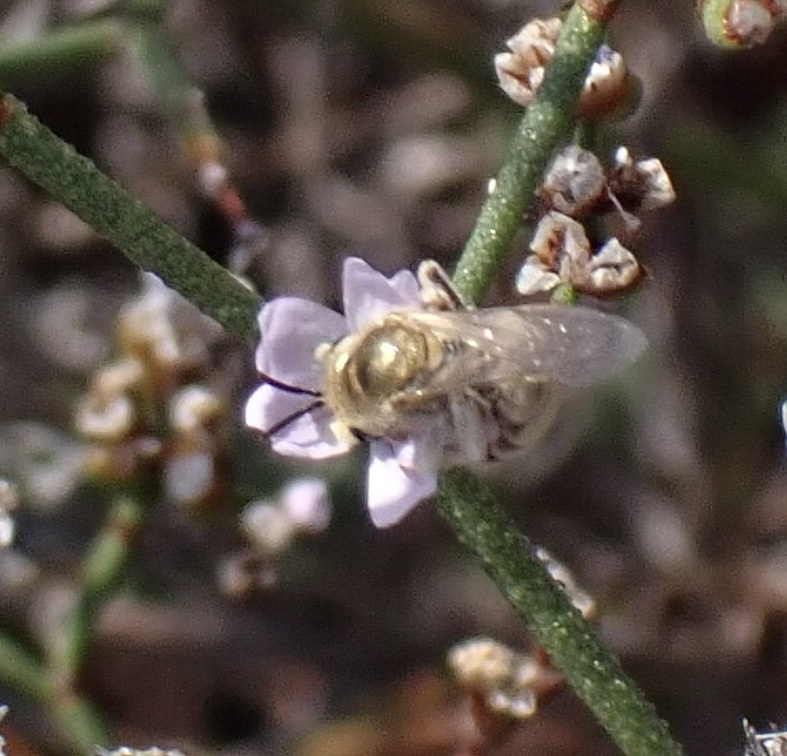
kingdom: Animalia
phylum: Arthropoda
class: Insecta
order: Hymenoptera
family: Halictidae
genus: Halictus
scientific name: Halictus pollinosus
